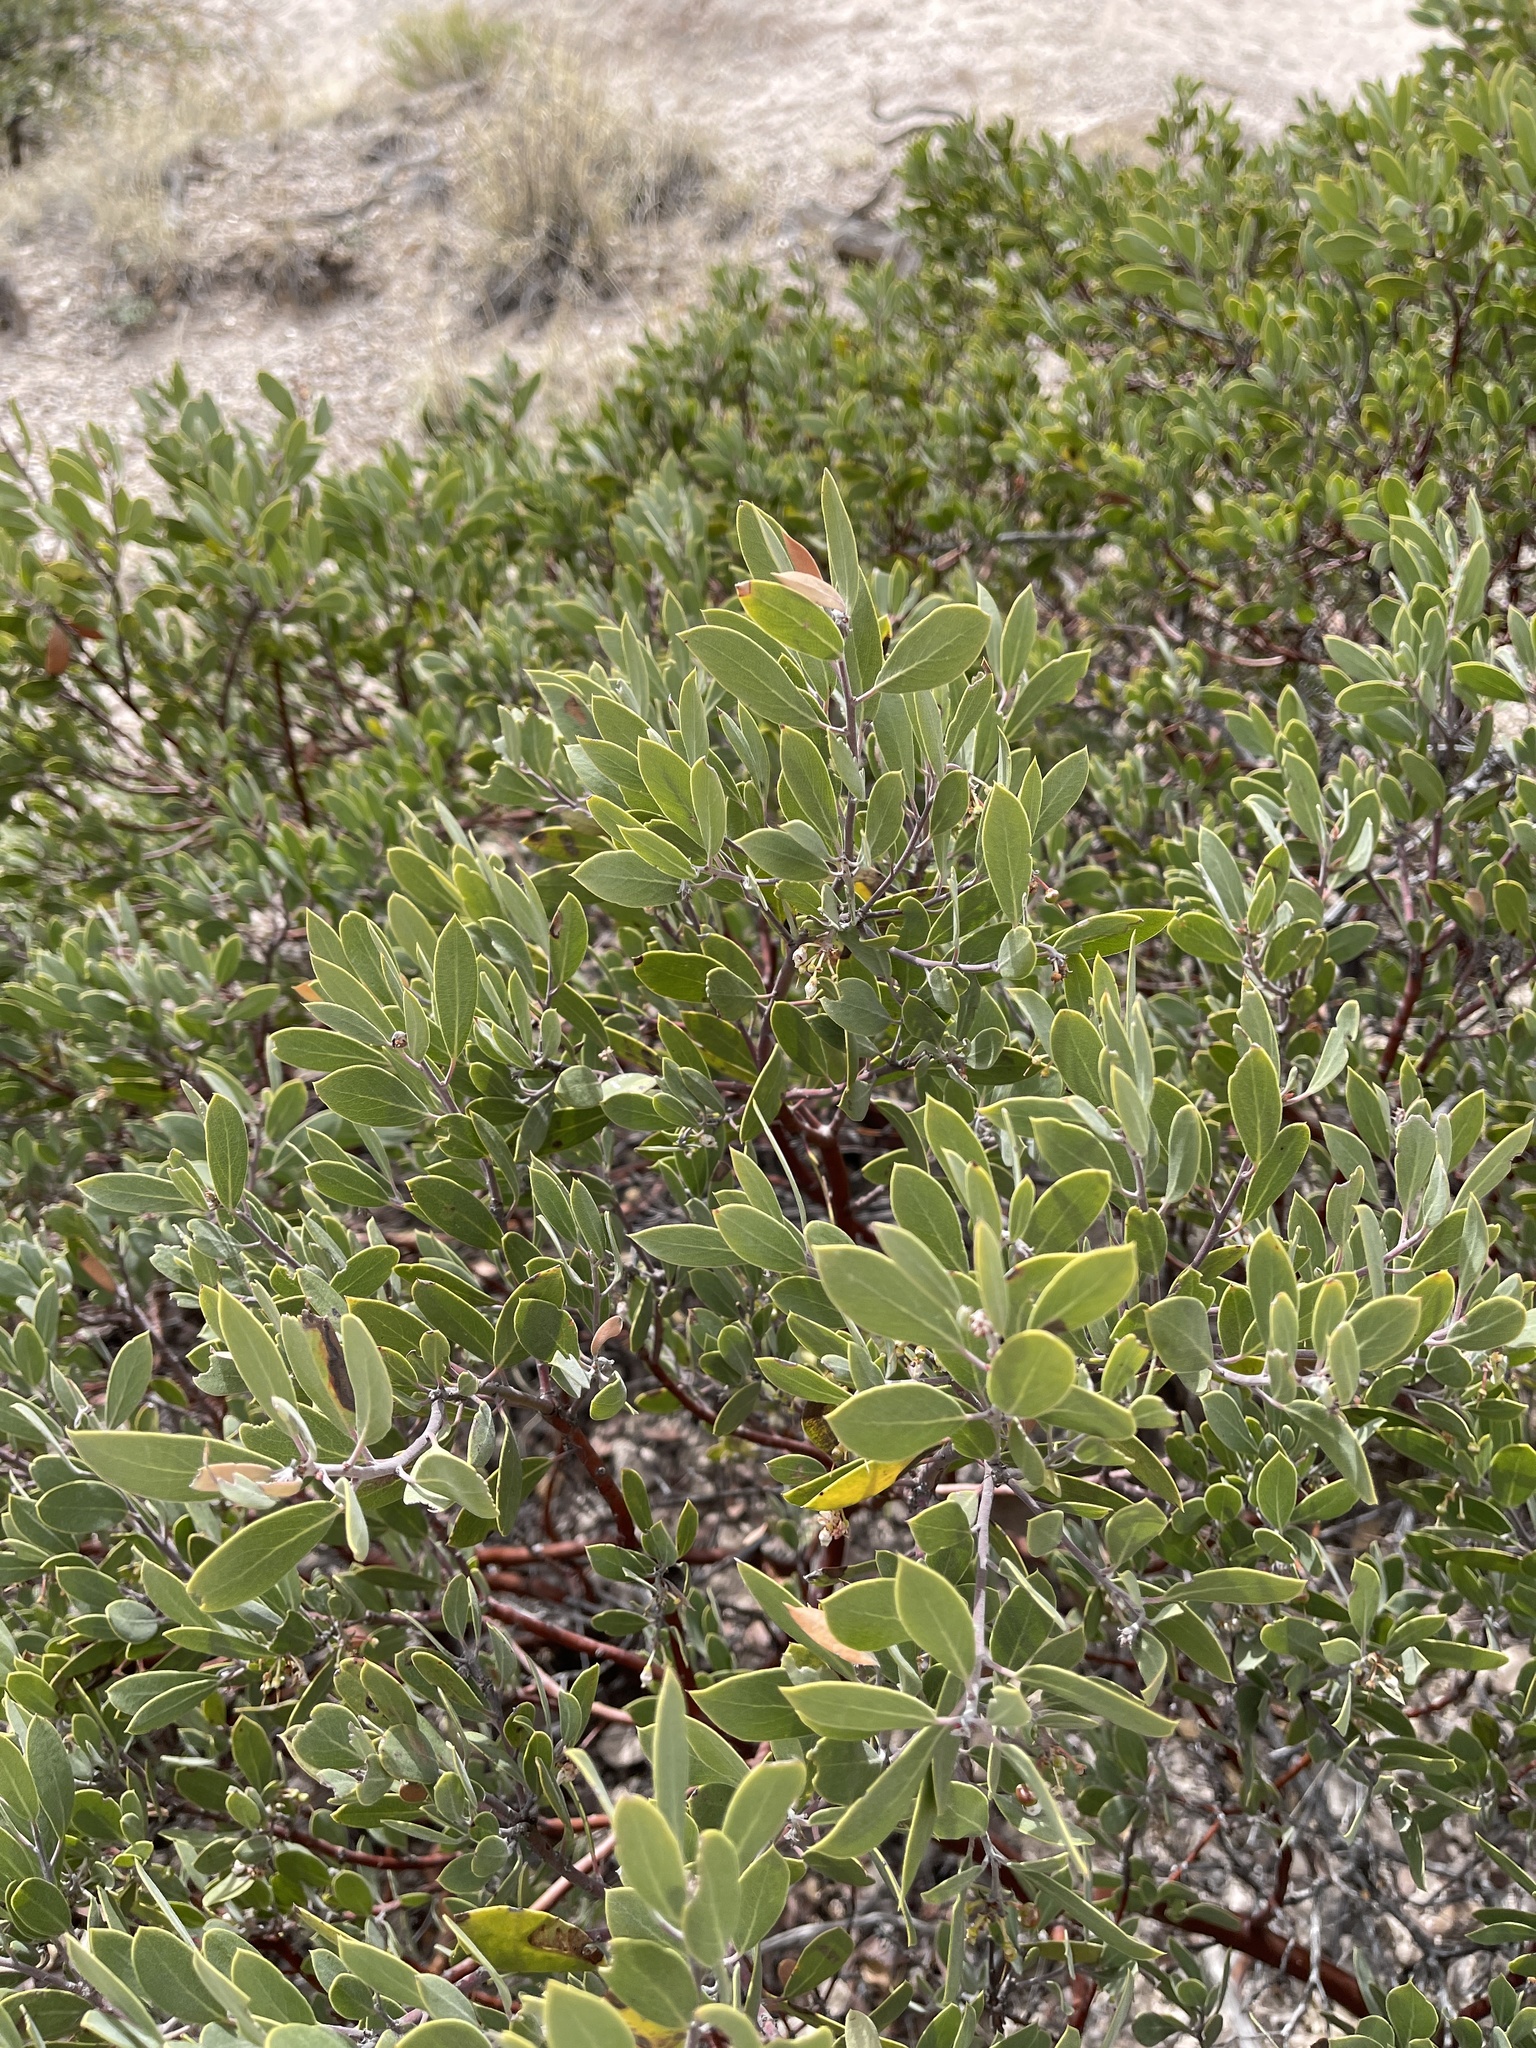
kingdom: Plantae
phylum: Tracheophyta
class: Magnoliopsida
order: Ericales
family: Ericaceae
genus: Arctostaphylos
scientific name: Arctostaphylos pungens
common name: Mexican manzanita
